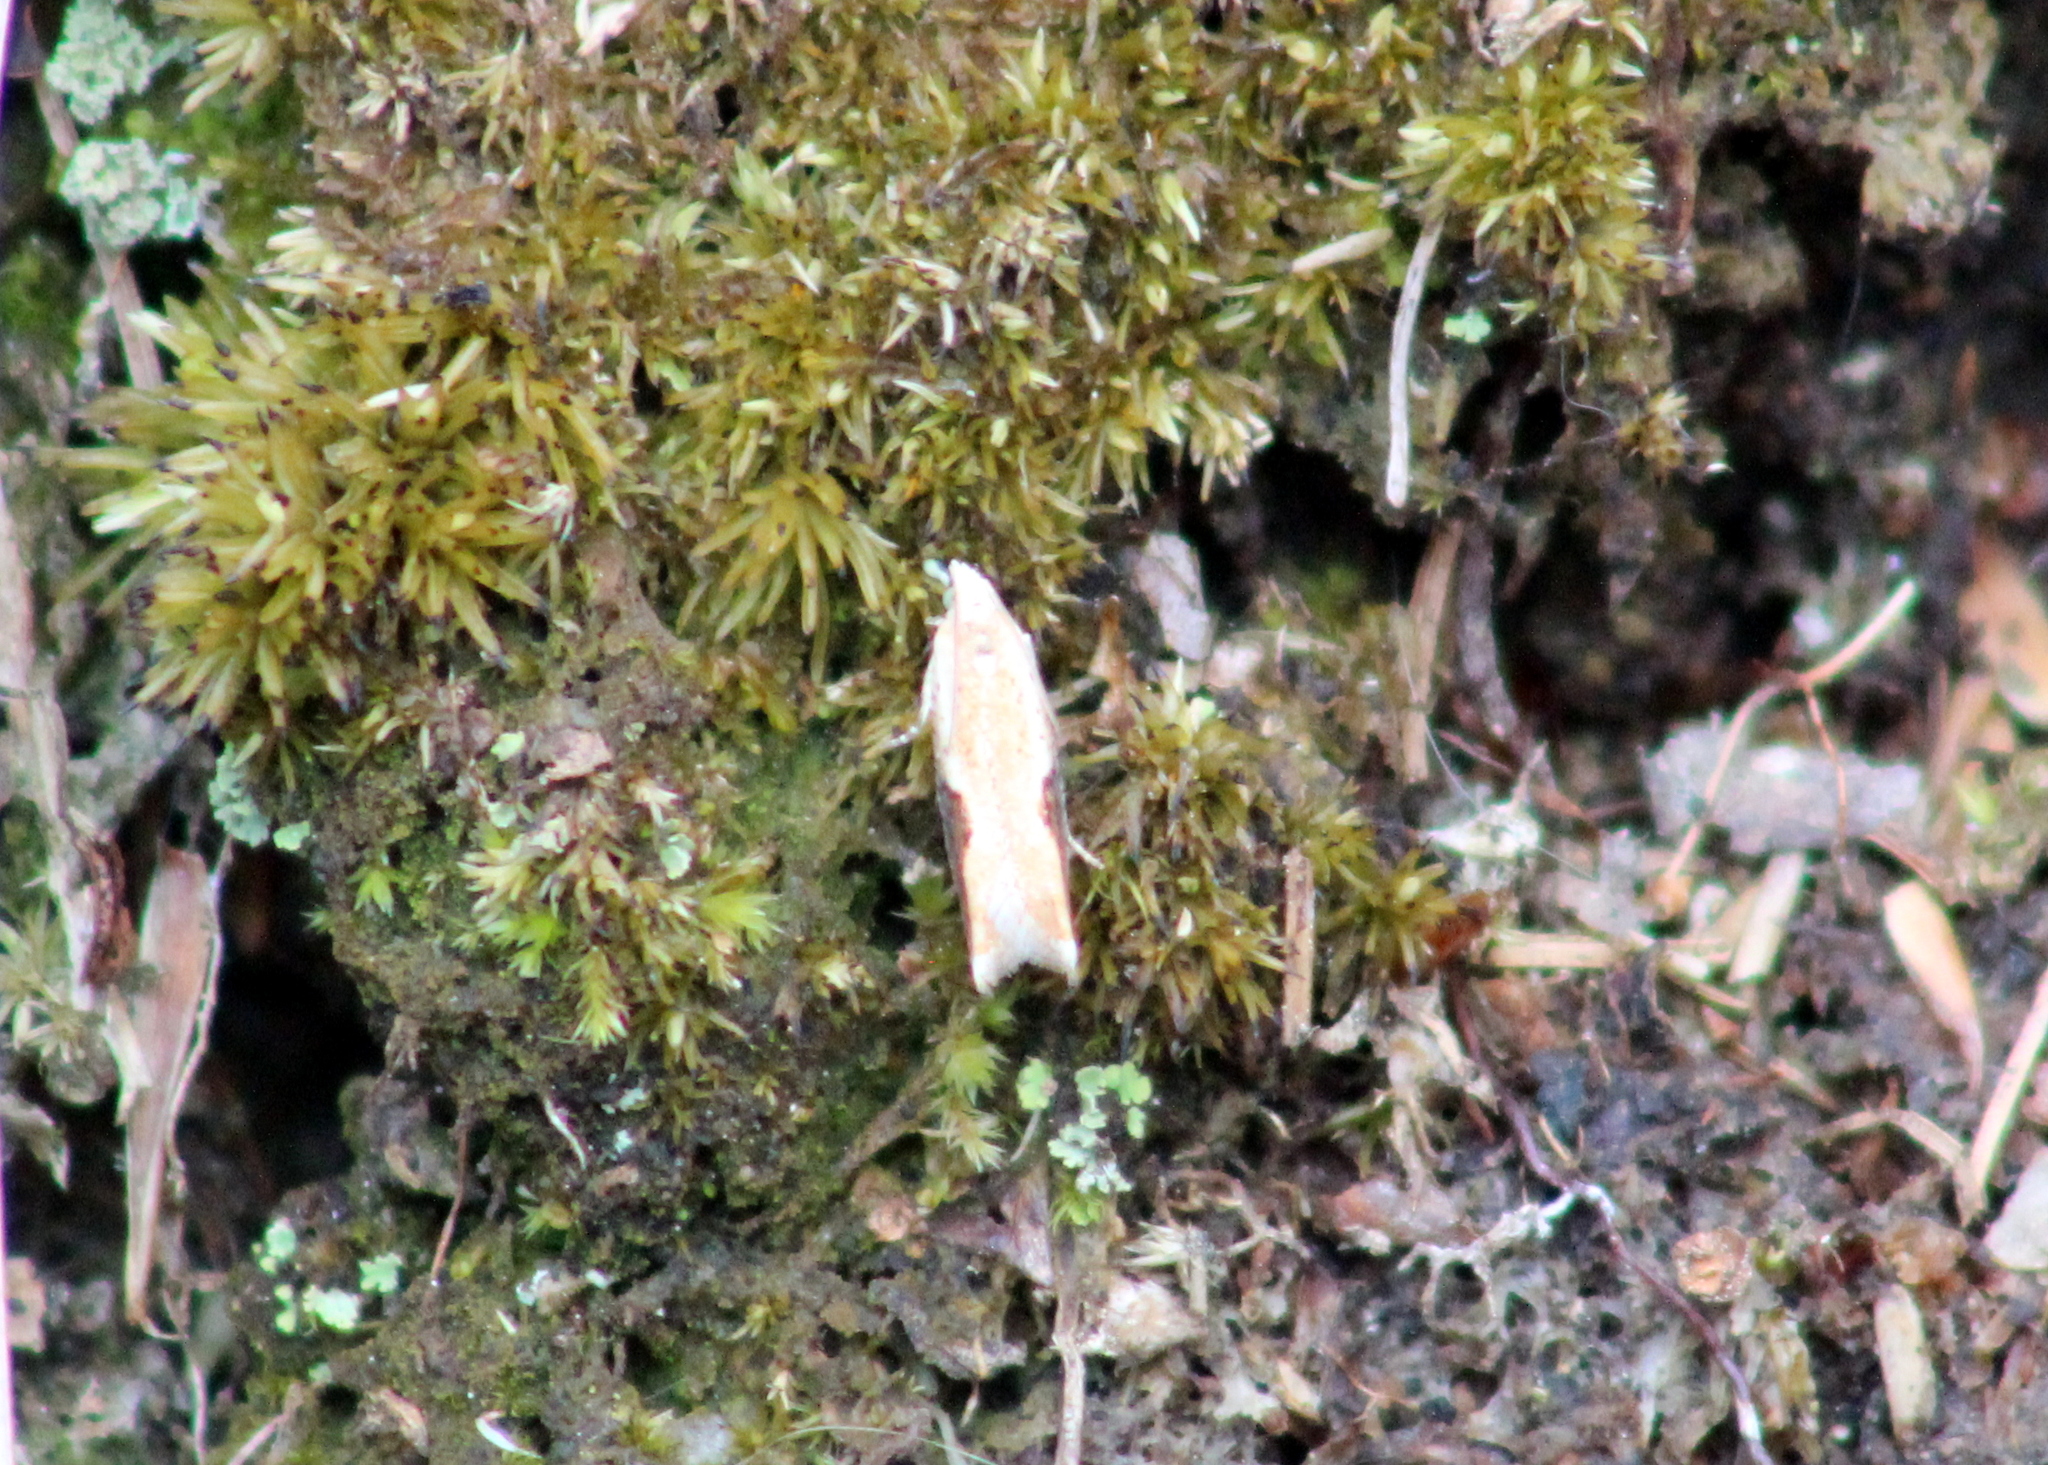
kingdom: Animalia
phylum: Arthropoda
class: Insecta
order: Lepidoptera
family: Tortricidae
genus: Pseudexentera
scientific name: Pseudexentera costomaculana
